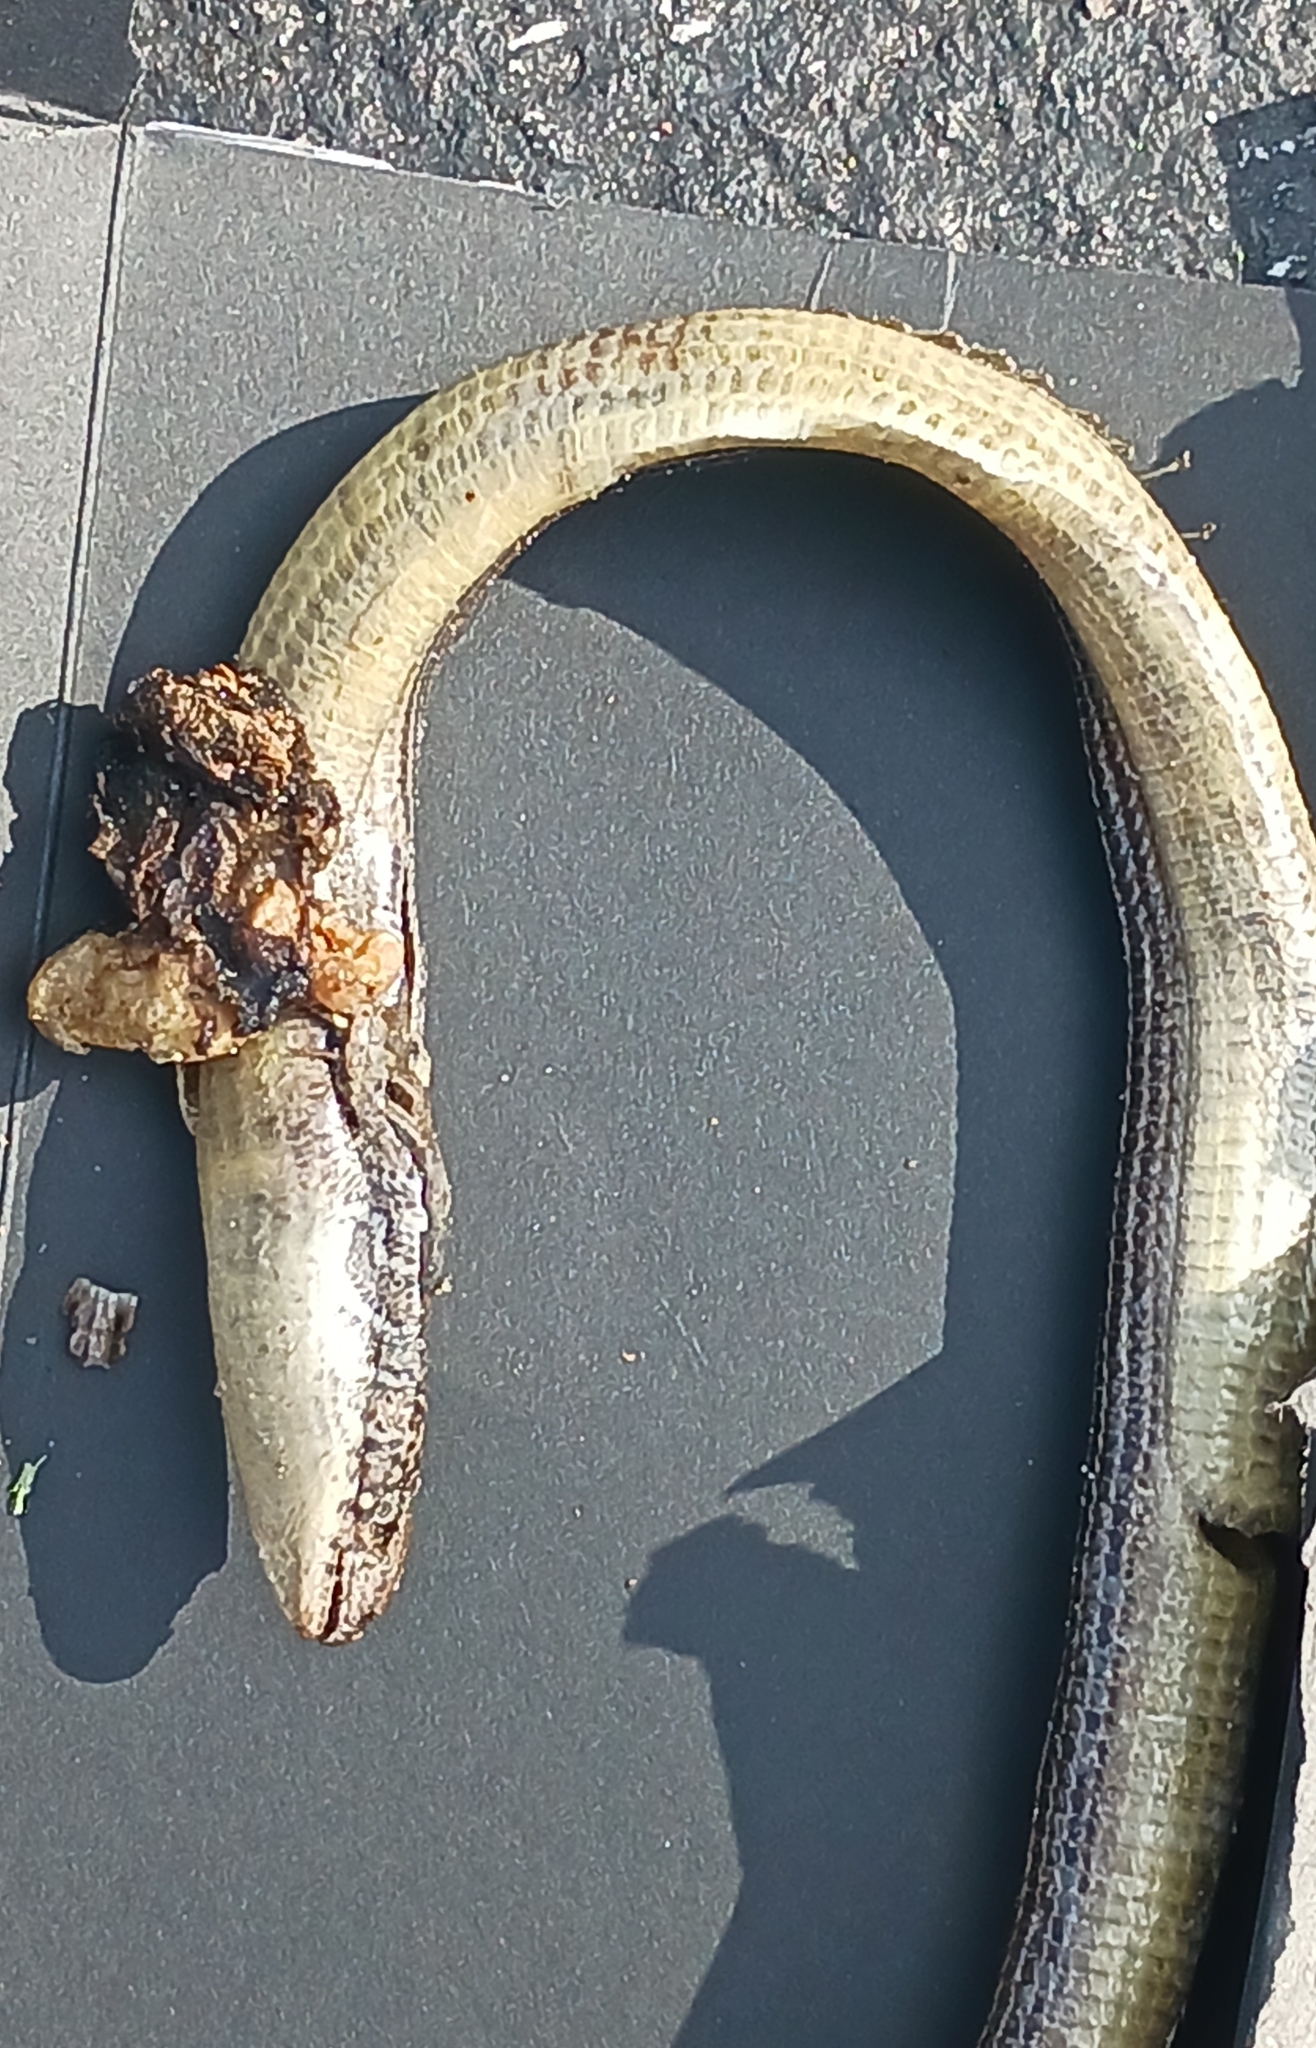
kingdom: Animalia
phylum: Chordata
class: Squamata
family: Anguidae
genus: Ophisaurus
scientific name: Ophisaurus ventralis
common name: Eastern glass lizard
